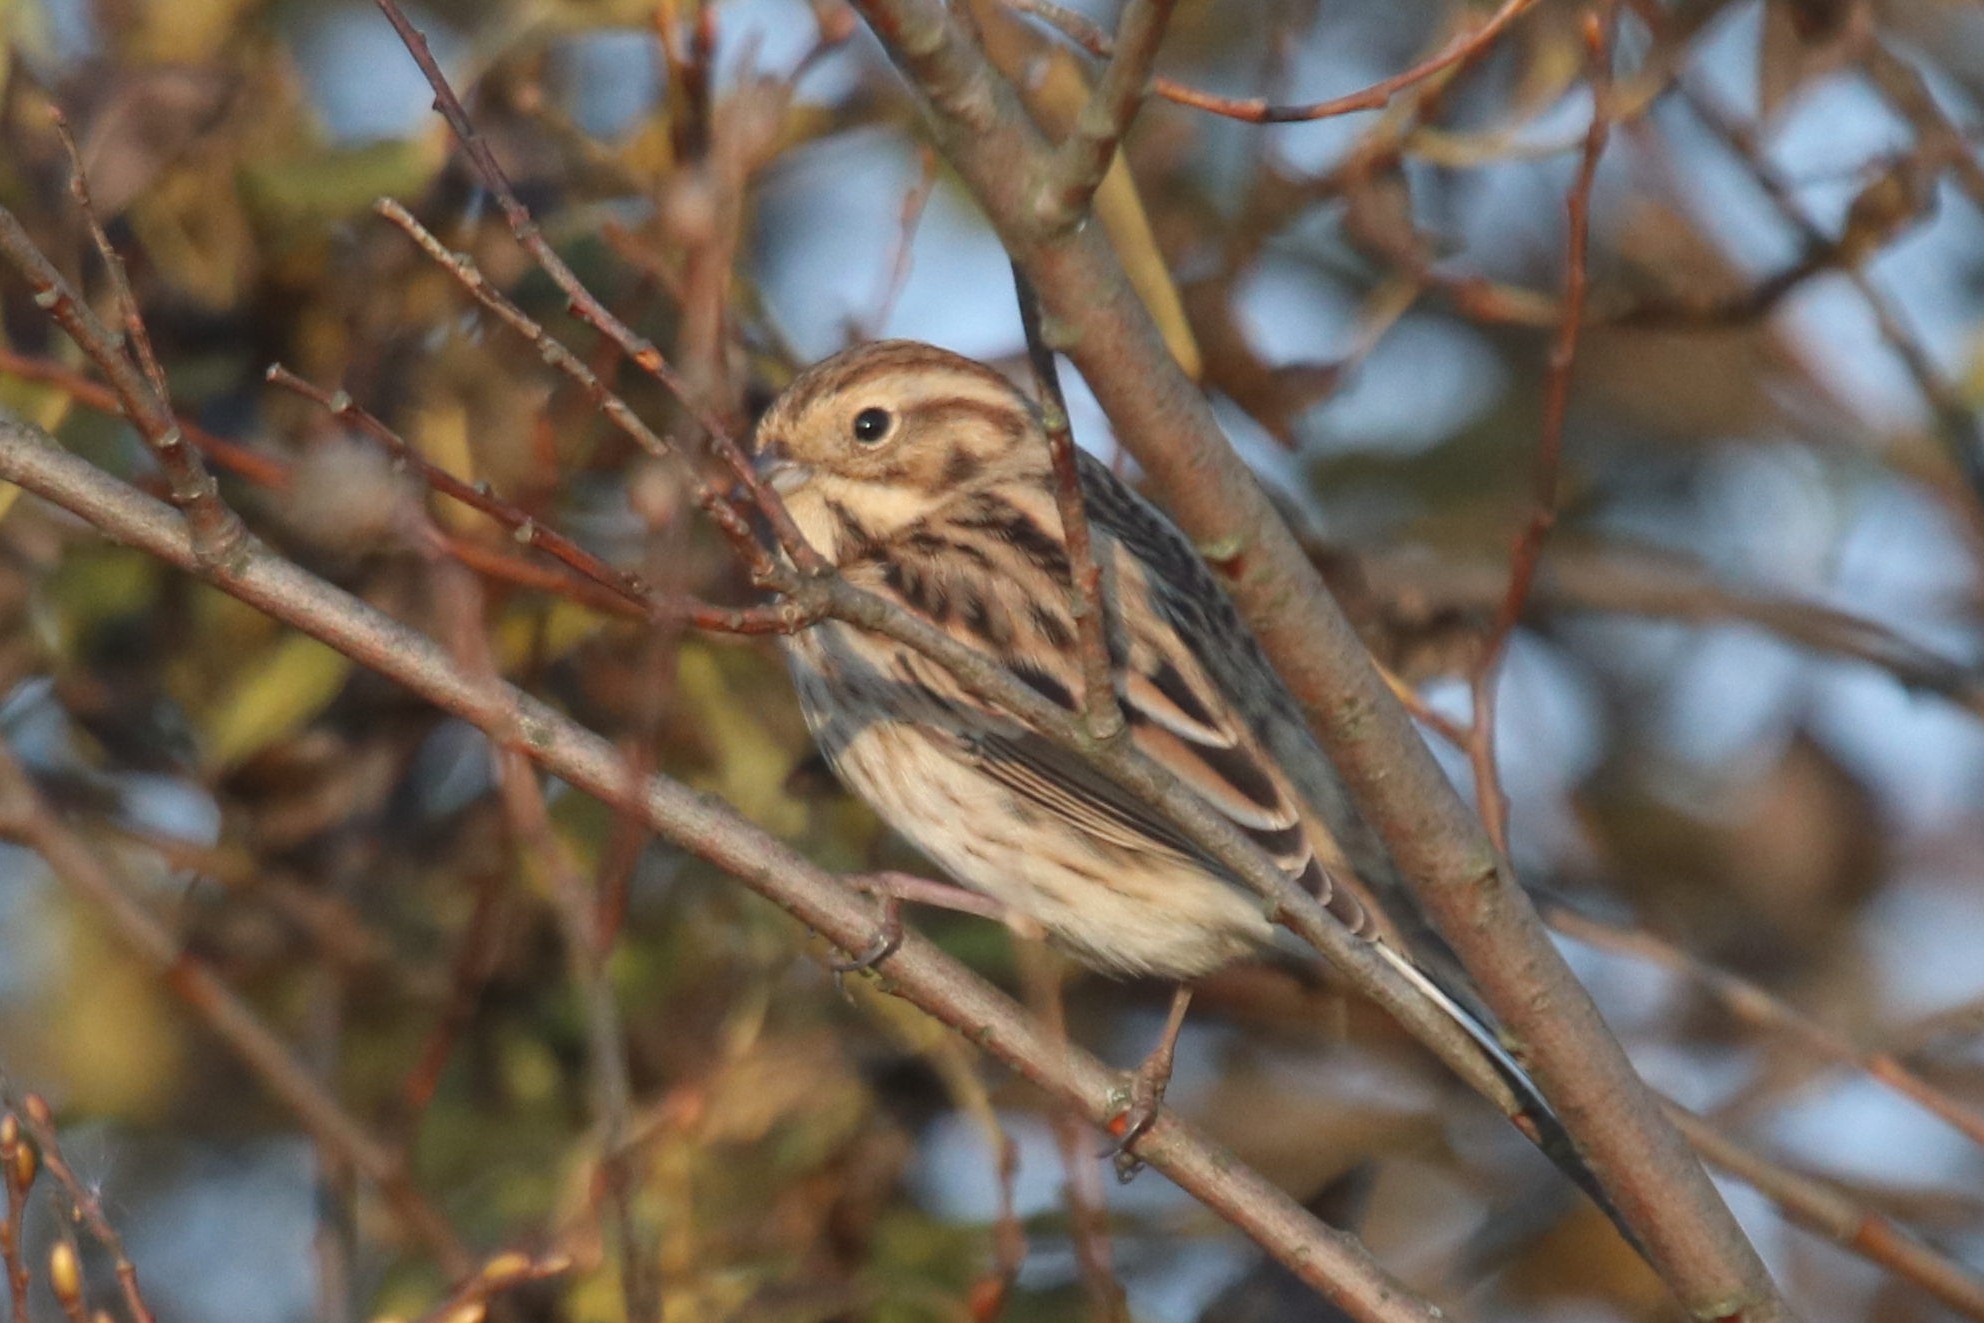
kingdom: Animalia
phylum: Chordata
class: Aves
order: Passeriformes
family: Emberizidae
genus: Emberiza
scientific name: Emberiza schoeniclus
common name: Reed bunting
